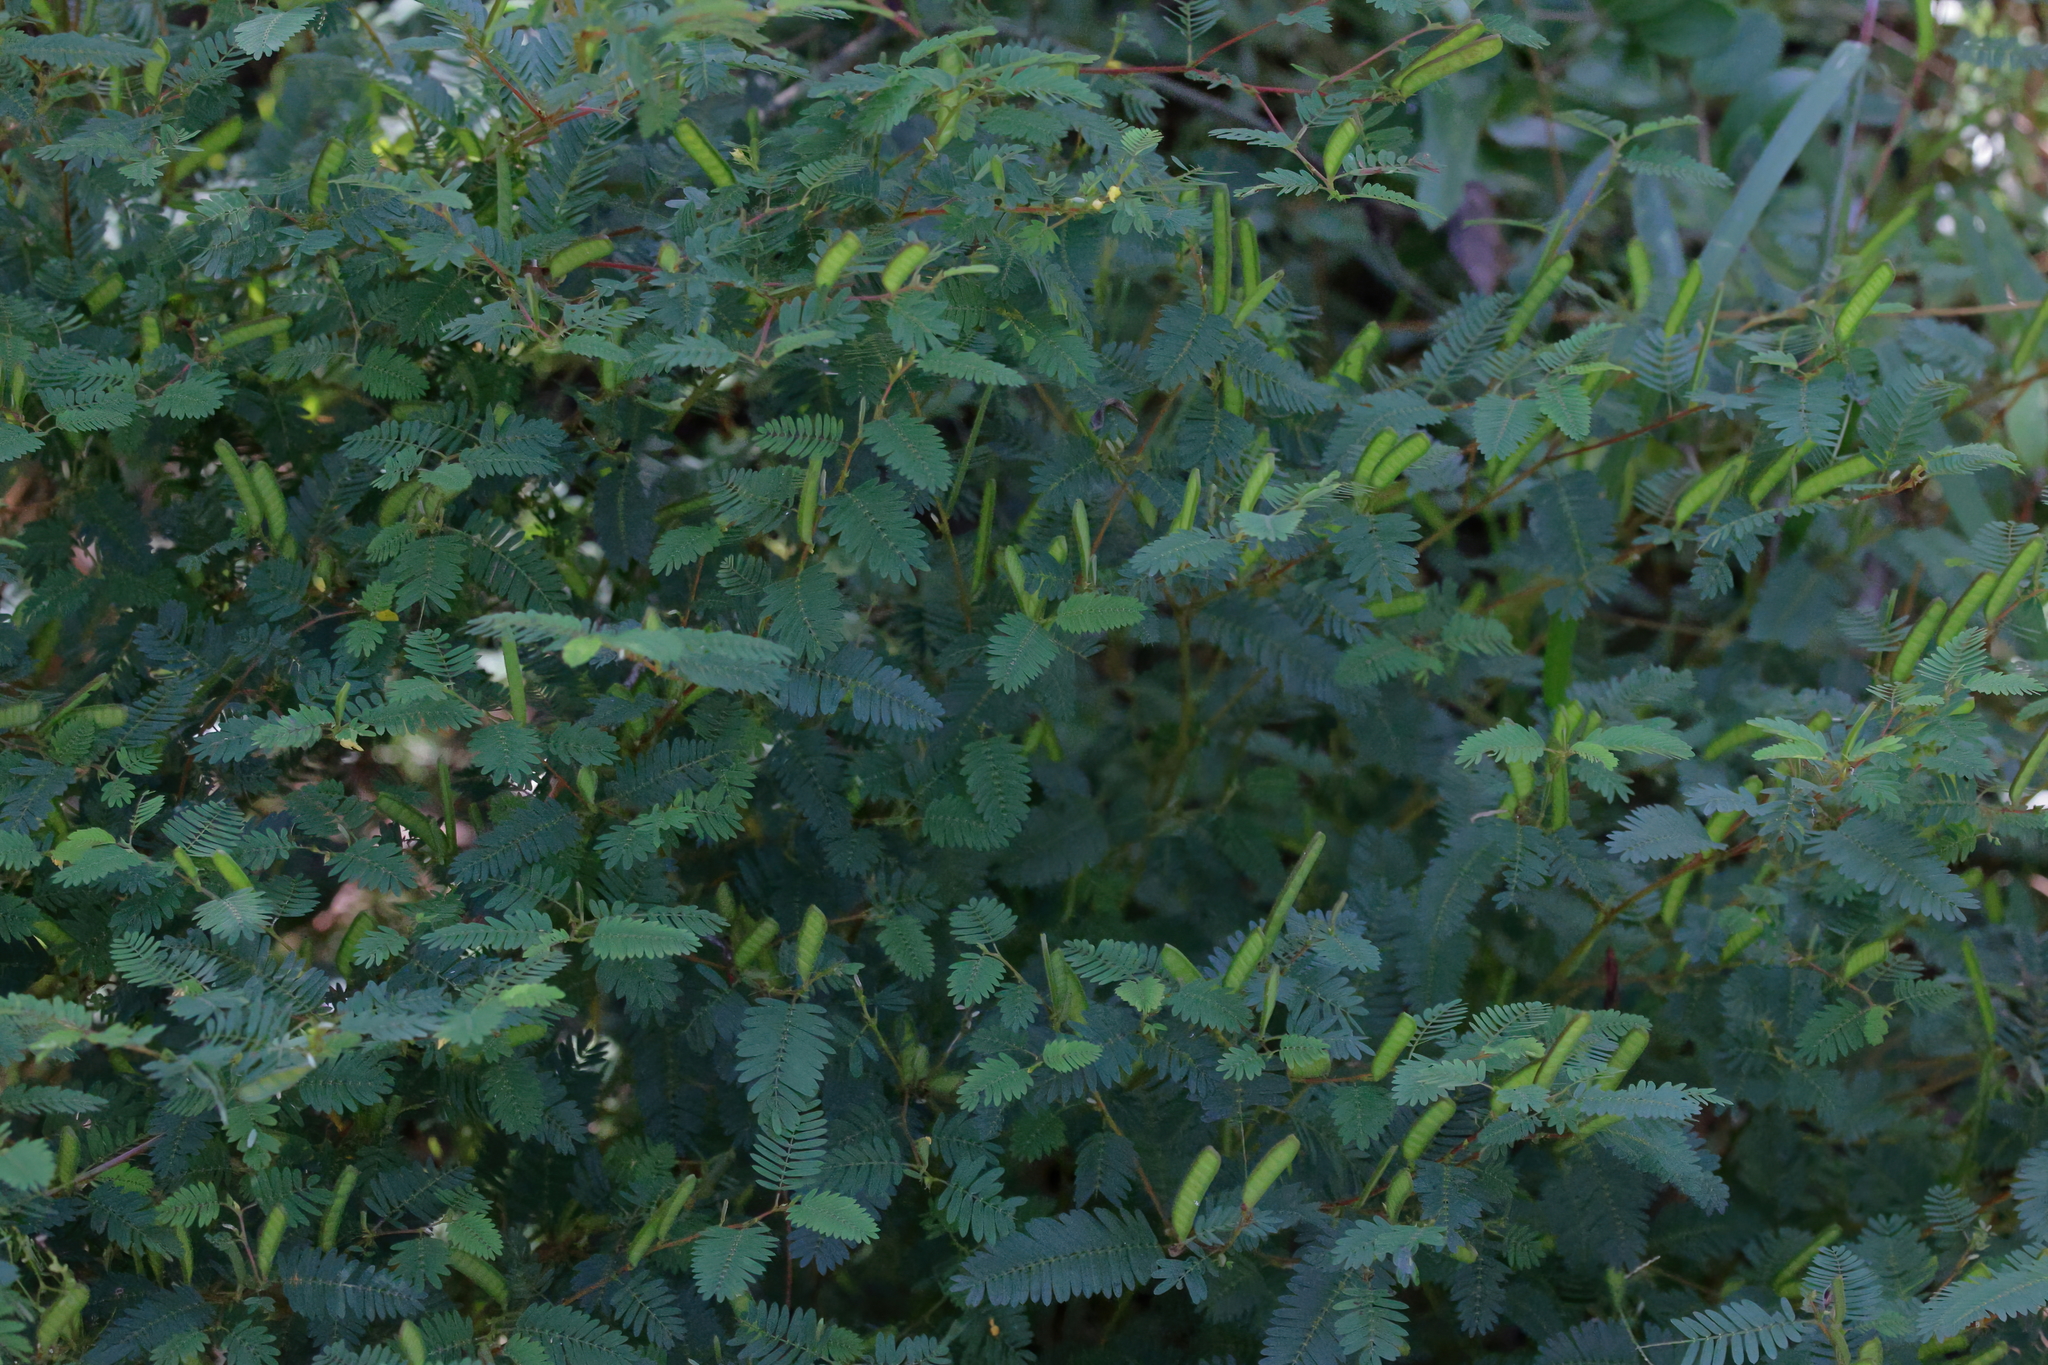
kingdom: Plantae
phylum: Tracheophyta
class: Magnoliopsida
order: Fabales
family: Fabaceae
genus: Chamaecrista
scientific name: Chamaecrista nictitans
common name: Sensitive cassia
